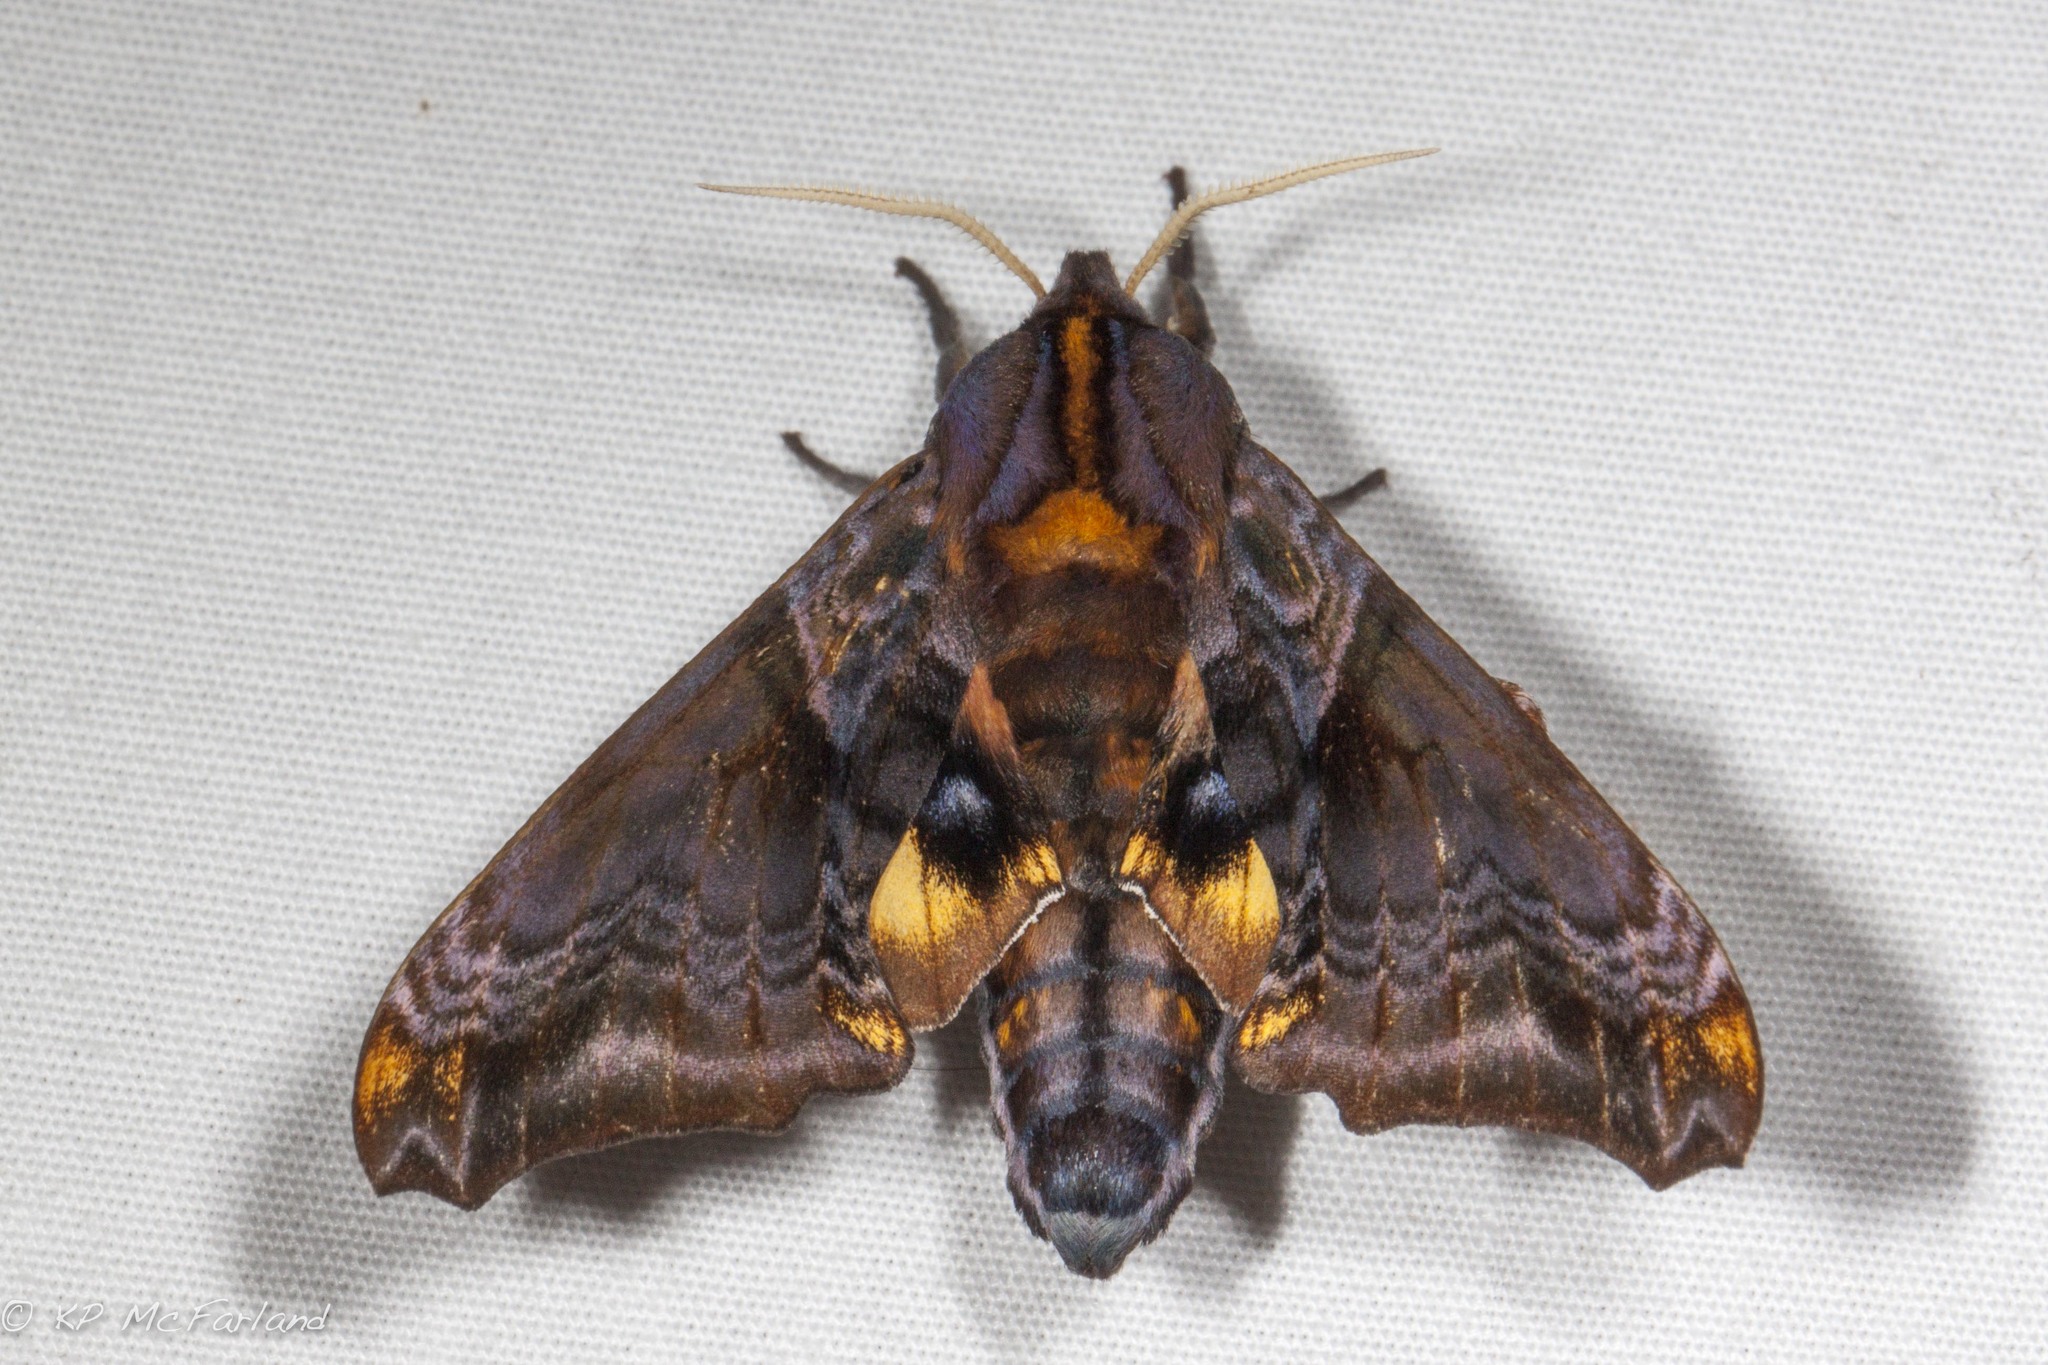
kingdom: Animalia
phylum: Arthropoda
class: Insecta
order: Lepidoptera
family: Sphingidae
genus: Paonias
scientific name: Paonias myops
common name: Small-eyed sphinx
